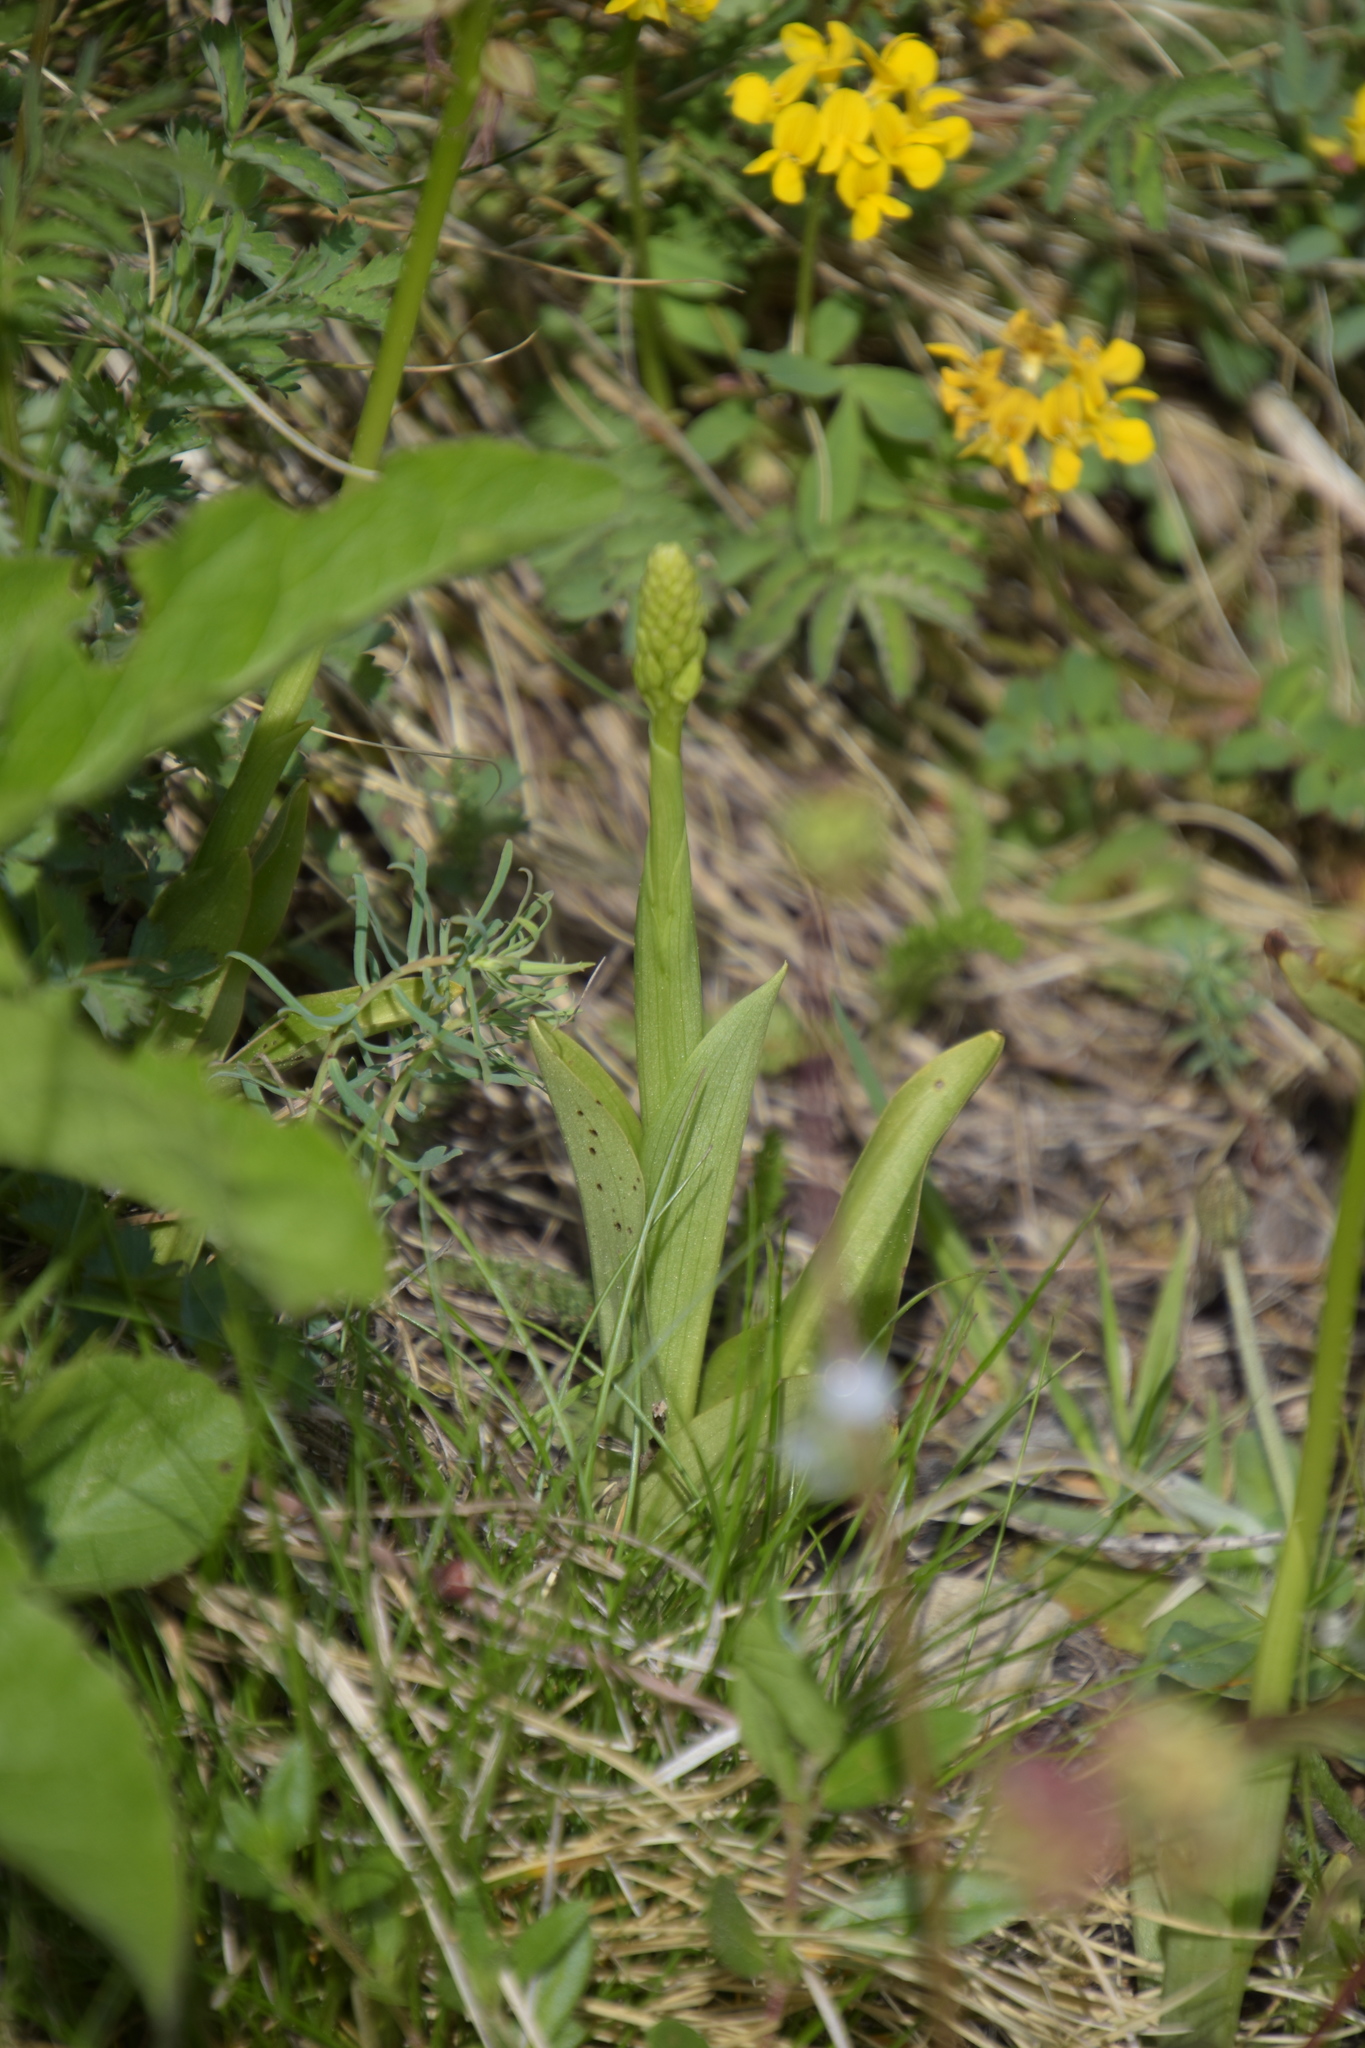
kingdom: Plantae
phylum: Tracheophyta
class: Liliopsida
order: Asparagales
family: Orchidaceae
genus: Orchis
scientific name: Orchis anthropophora
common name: Man orchid
